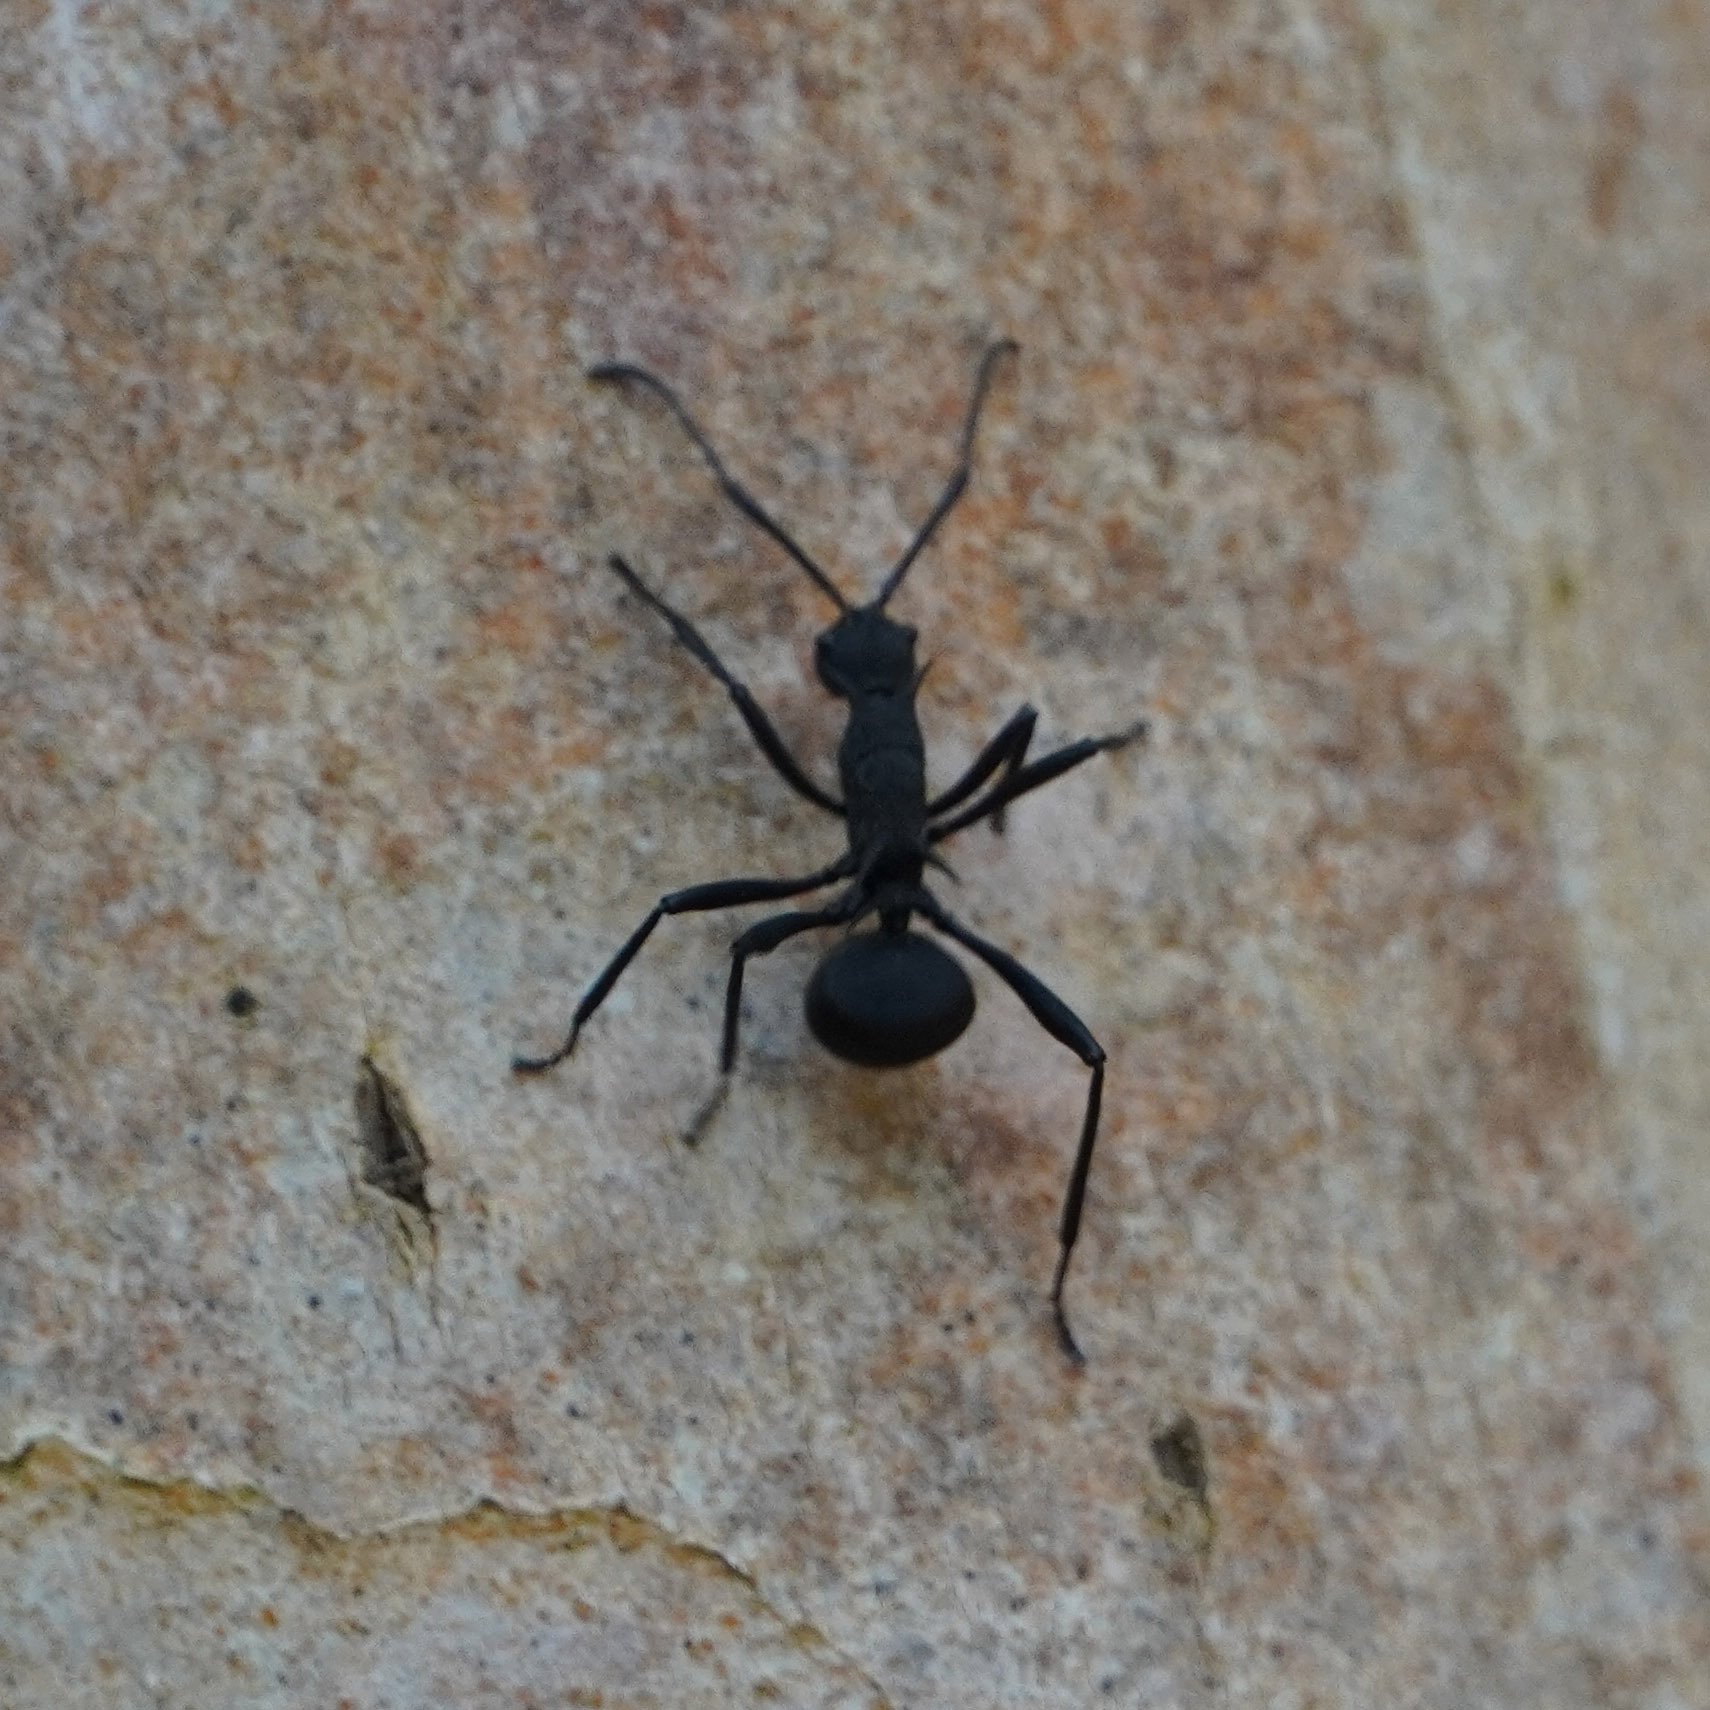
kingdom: Animalia
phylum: Arthropoda
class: Insecta
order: Hymenoptera
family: Formicidae
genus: Polyrhachis
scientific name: Polyrhachis armata
